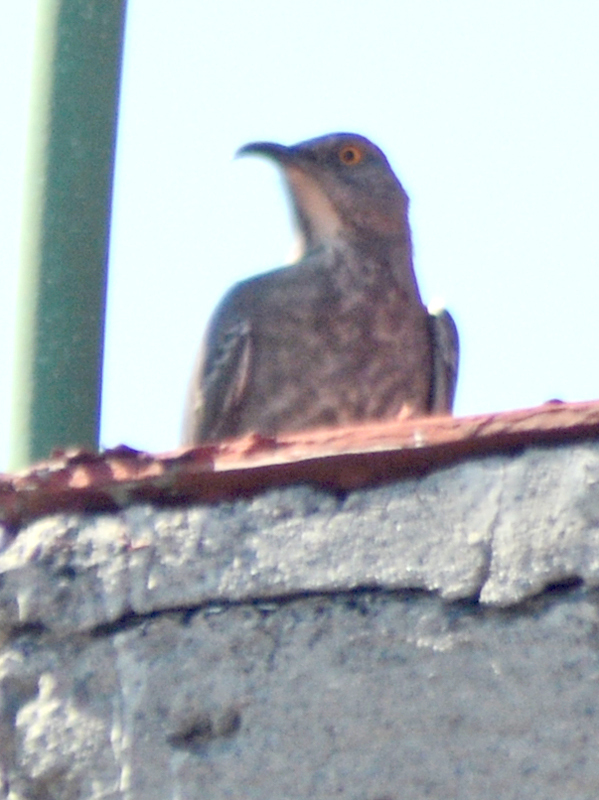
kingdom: Animalia
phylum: Chordata
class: Aves
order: Passeriformes
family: Mimidae
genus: Toxostoma
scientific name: Toxostoma curvirostre
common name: Curve-billed thrasher
